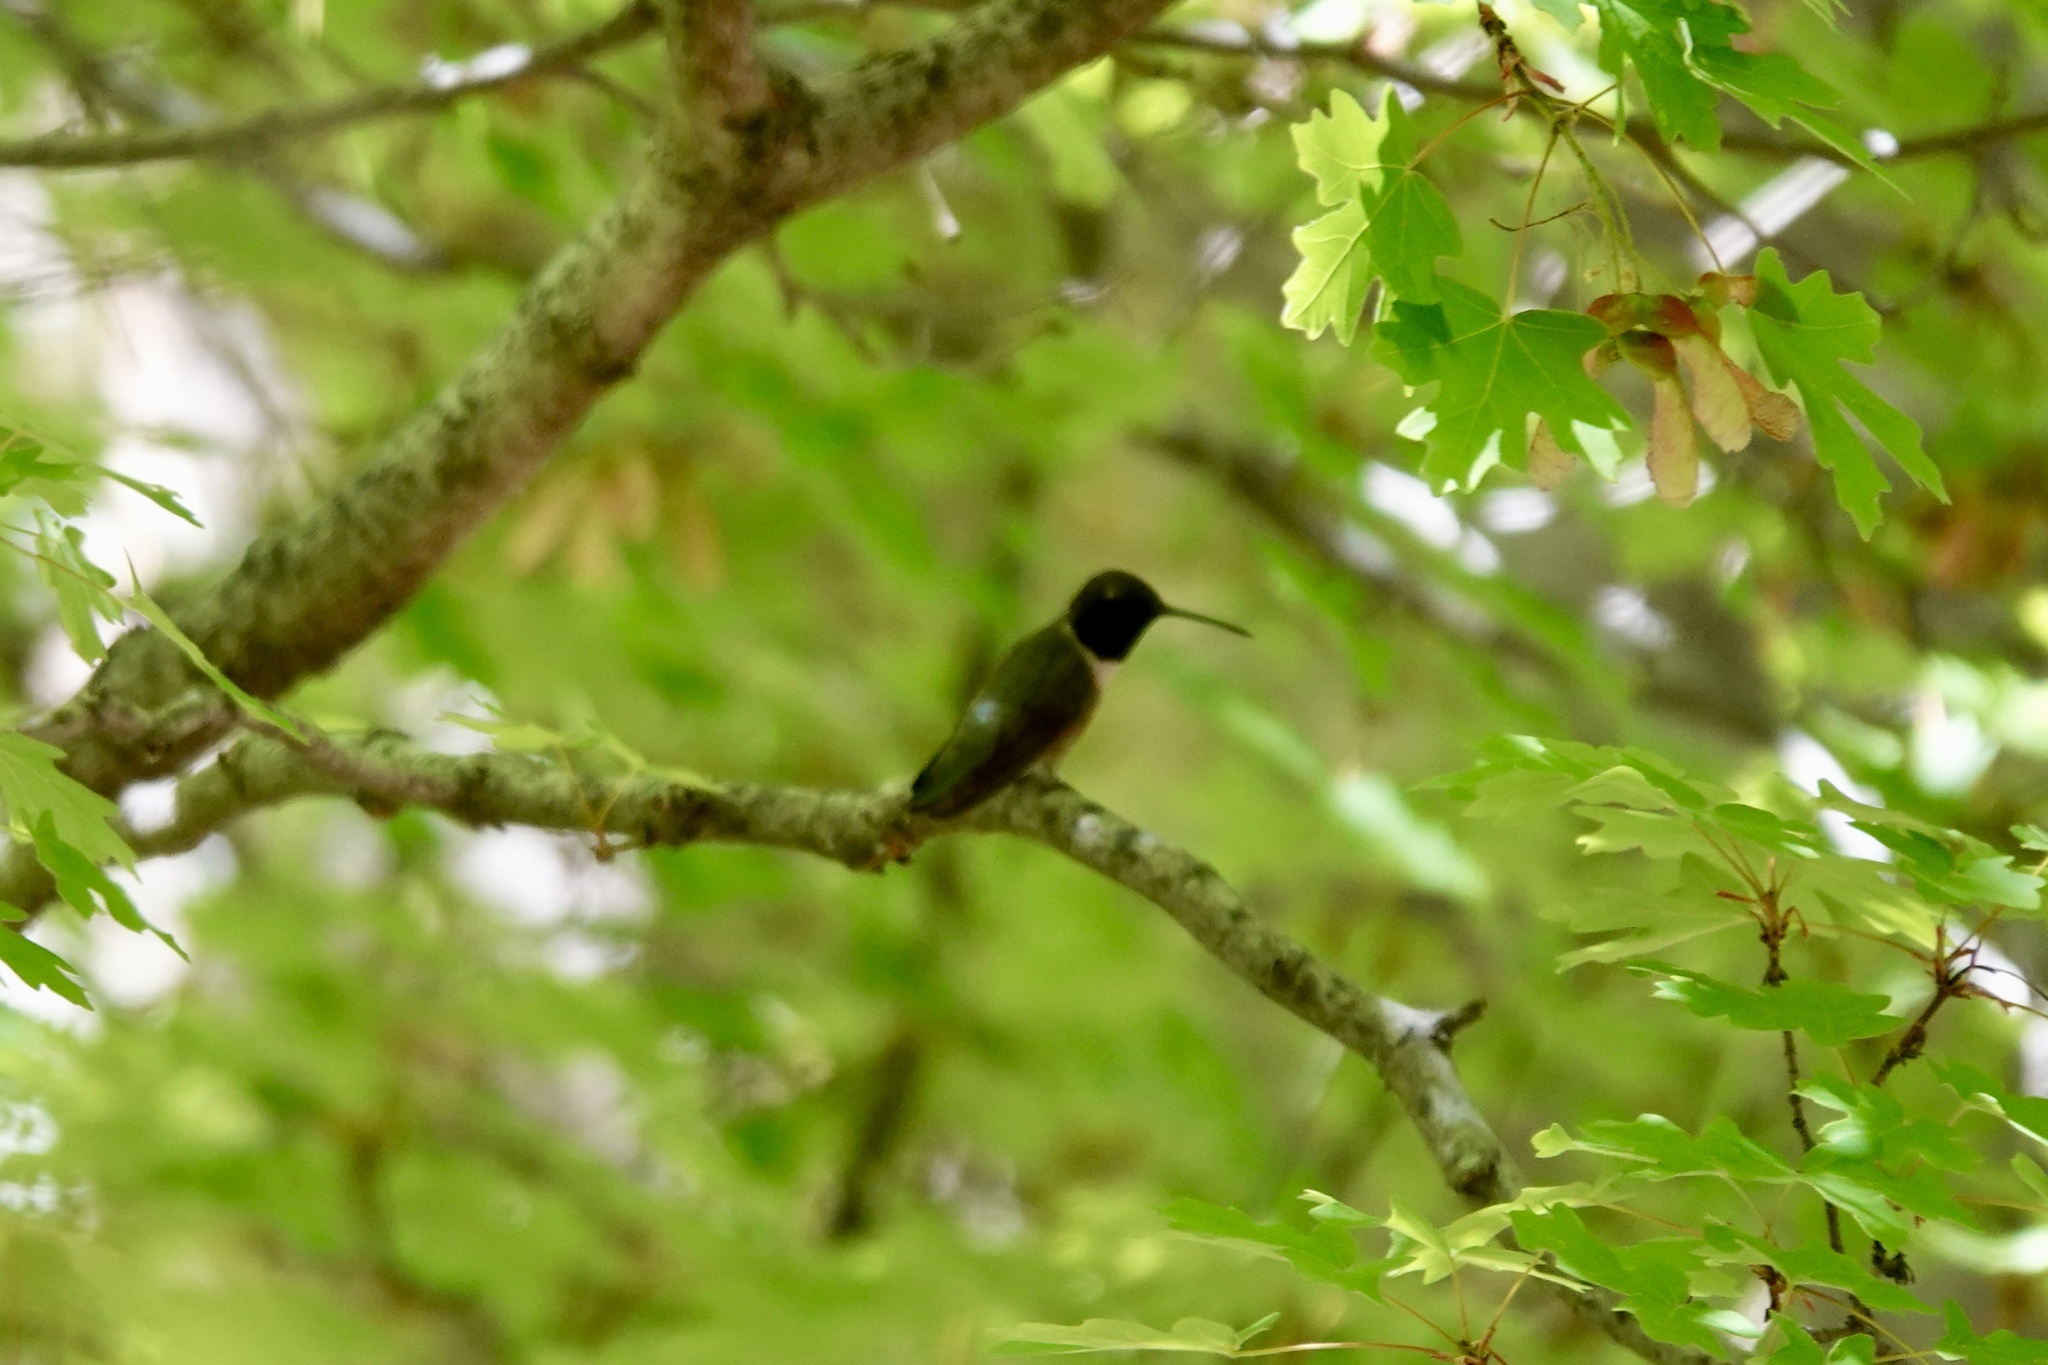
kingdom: Animalia
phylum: Chordata
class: Aves
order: Apodiformes
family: Trochilidae
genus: Archilochus
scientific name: Archilochus alexandri
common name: Black-chinned hummingbird
